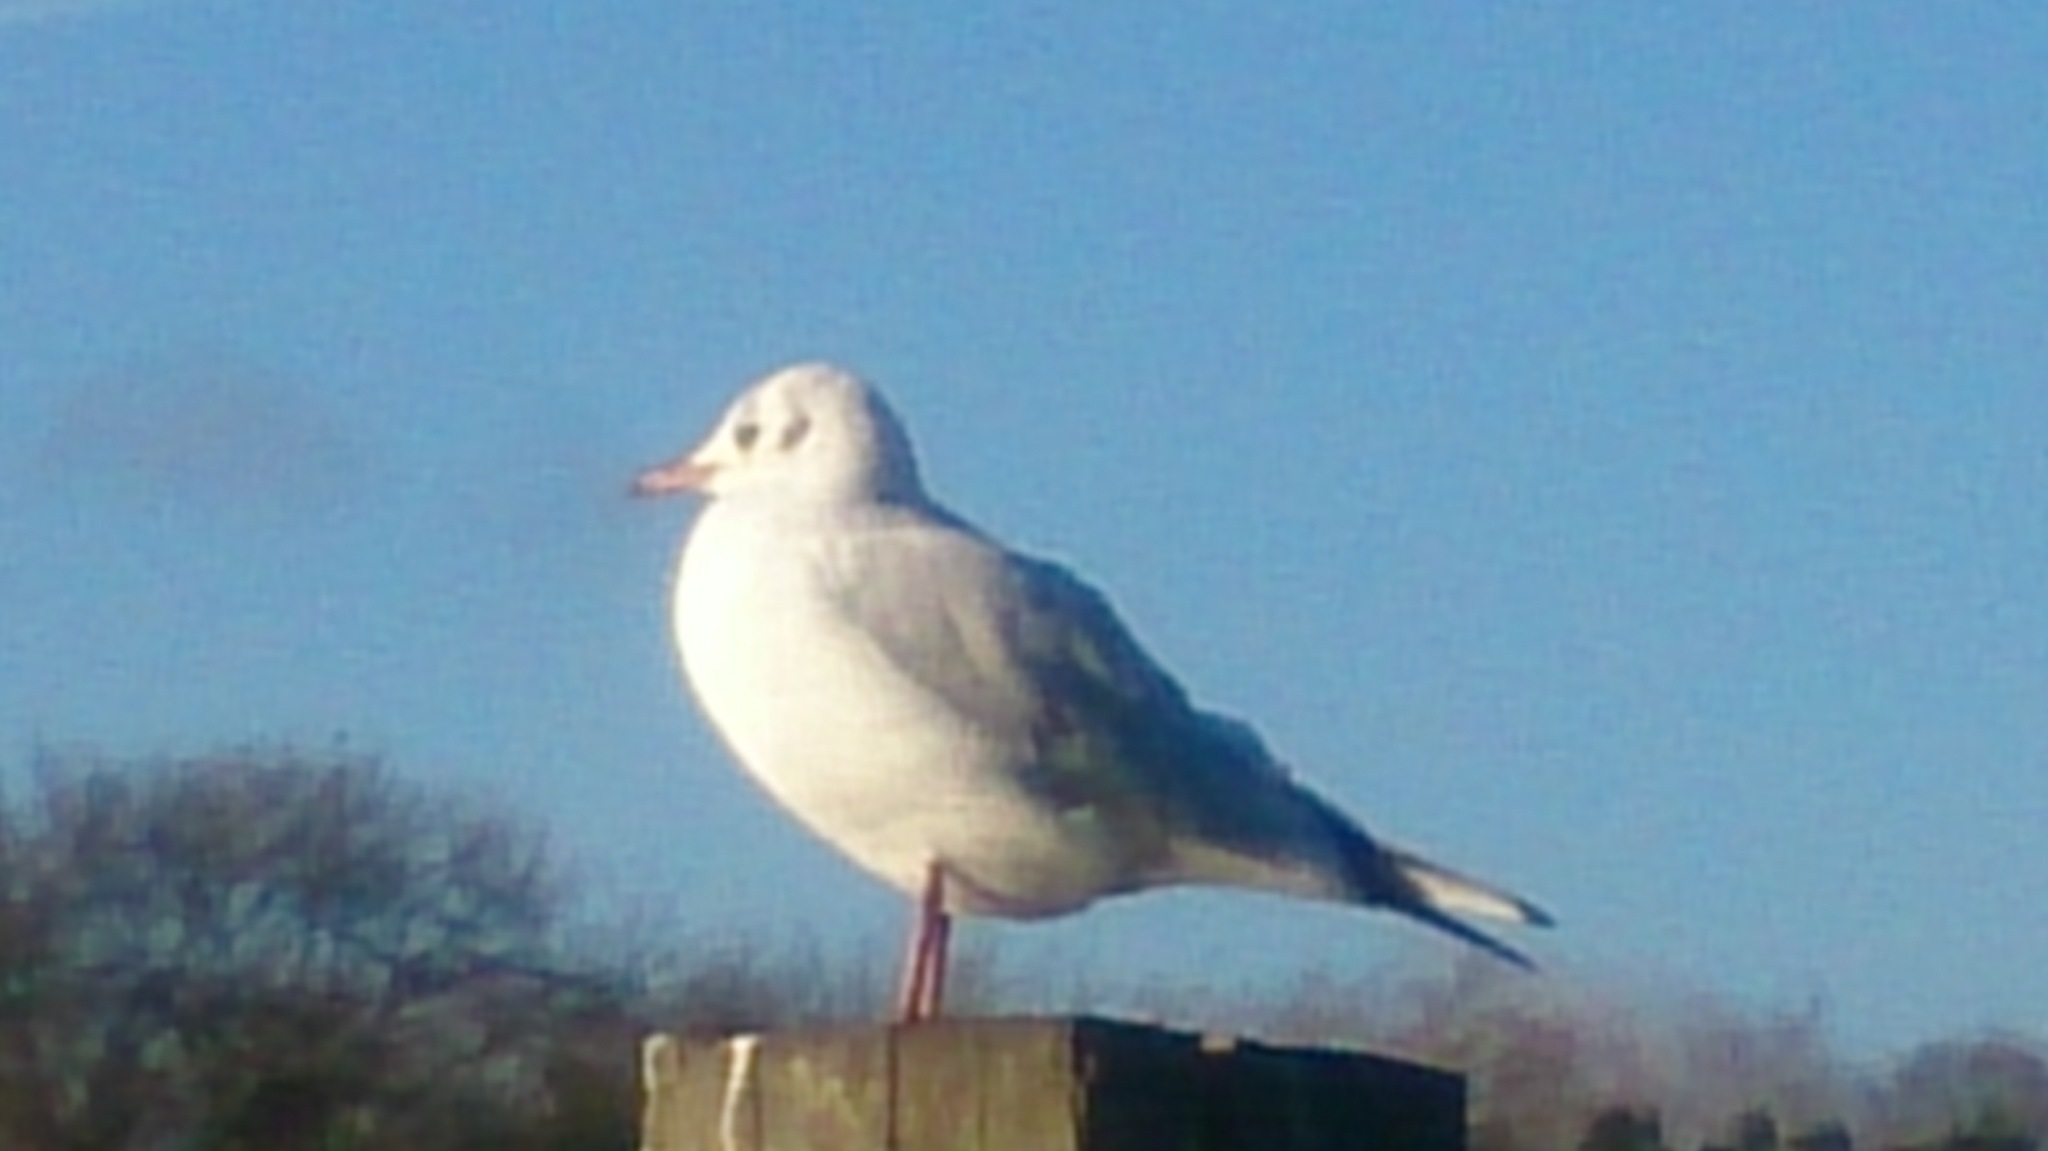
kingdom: Animalia
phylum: Chordata
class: Aves
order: Charadriiformes
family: Laridae
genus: Chroicocephalus
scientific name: Chroicocephalus ridibundus
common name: Black-headed gull
